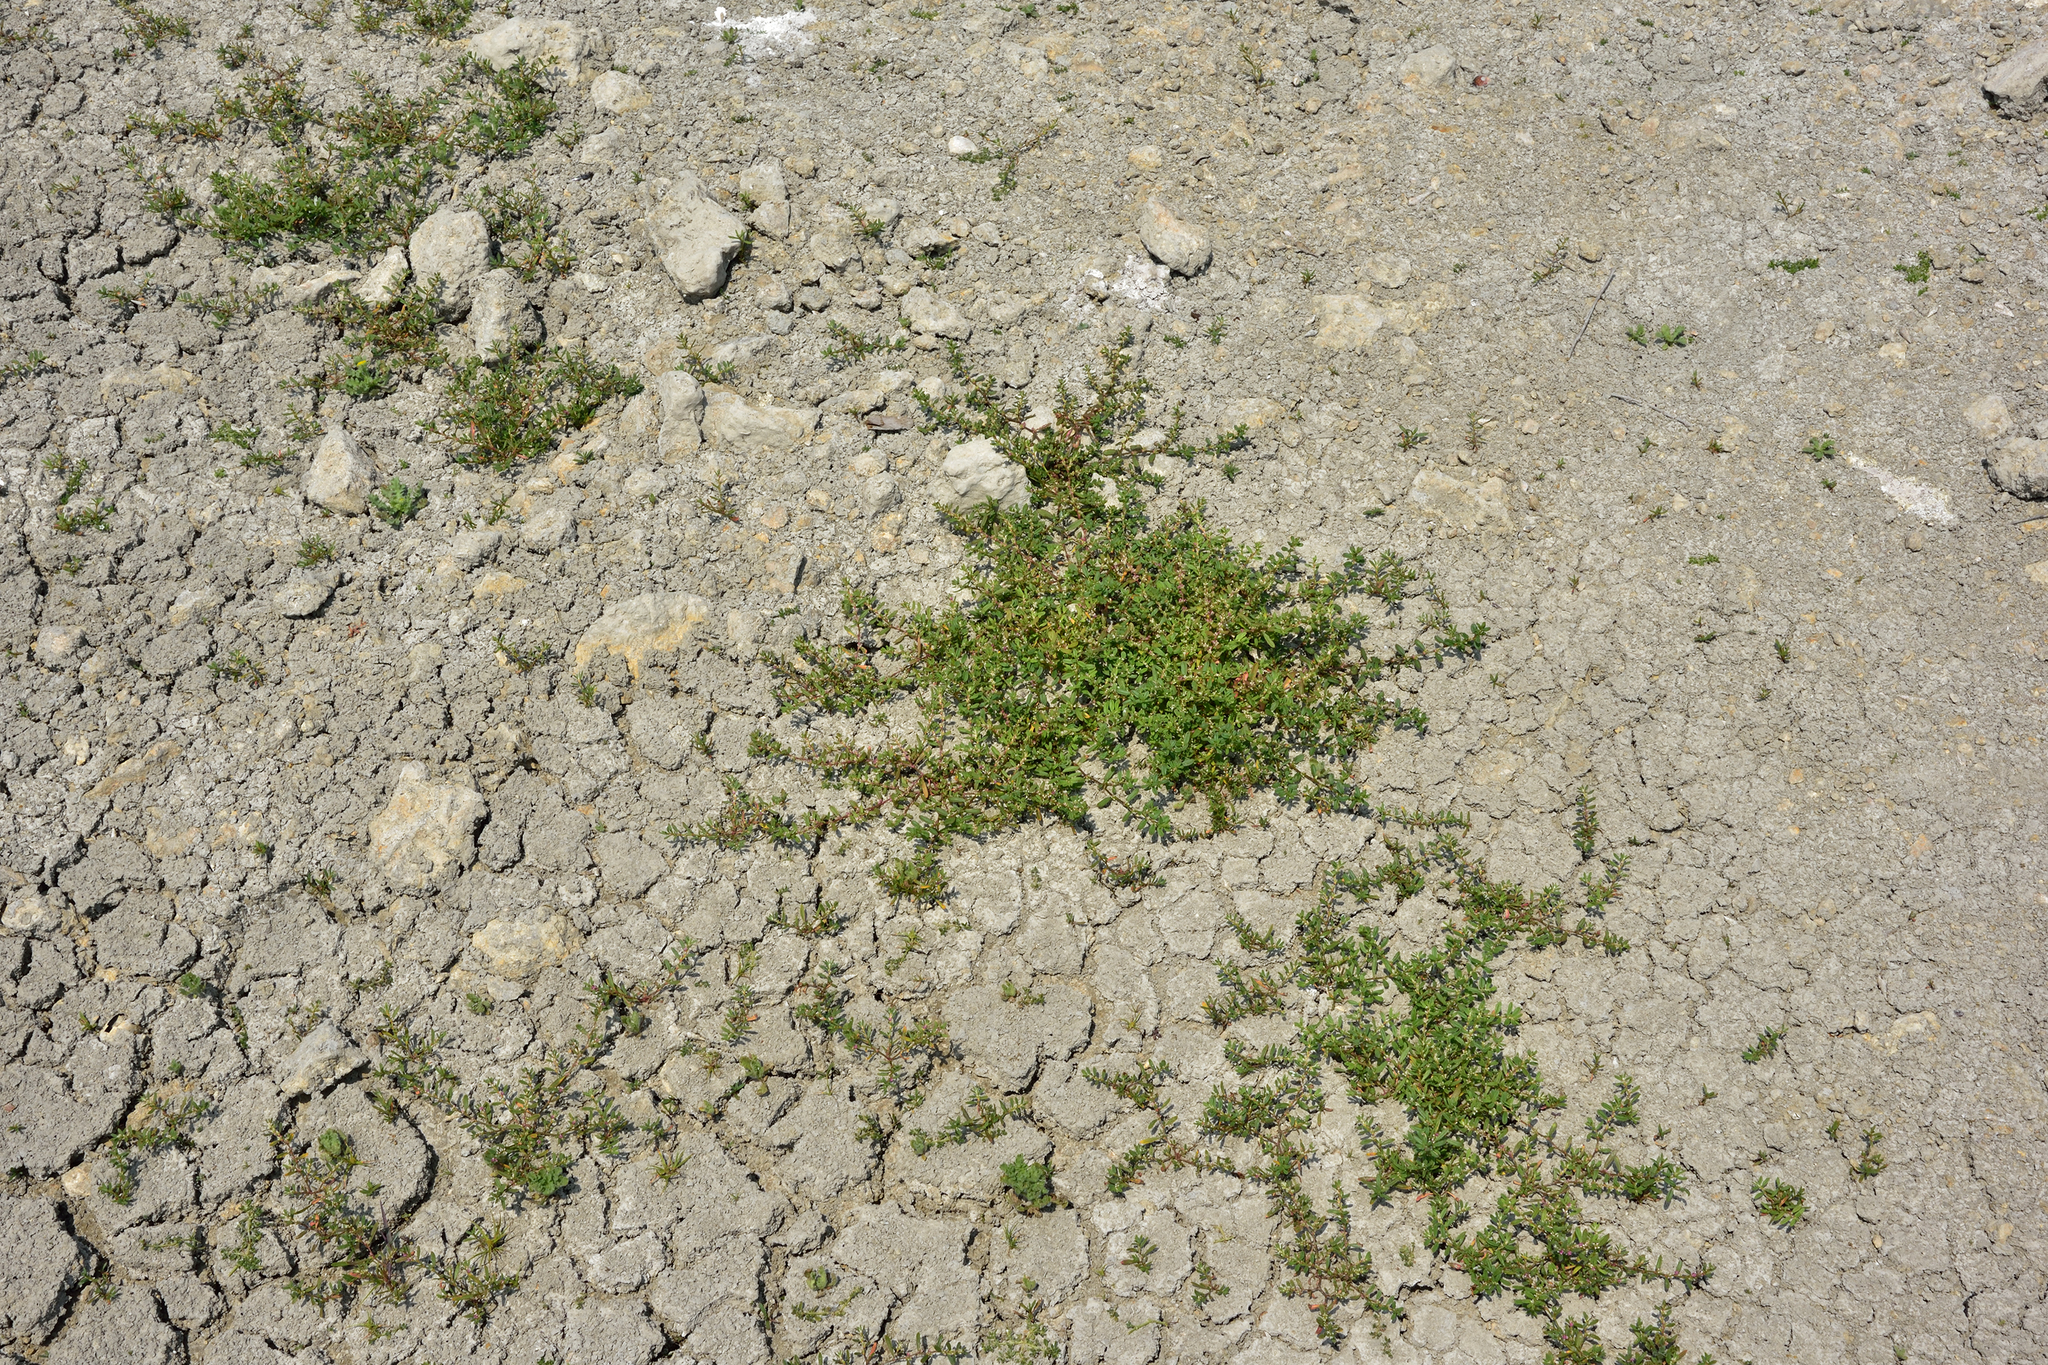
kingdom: Plantae
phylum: Tracheophyta
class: Magnoliopsida
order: Caryophyllales
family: Polygonaceae
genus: Polygonum
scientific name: Polygonum plebeium
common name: Common knotweed
